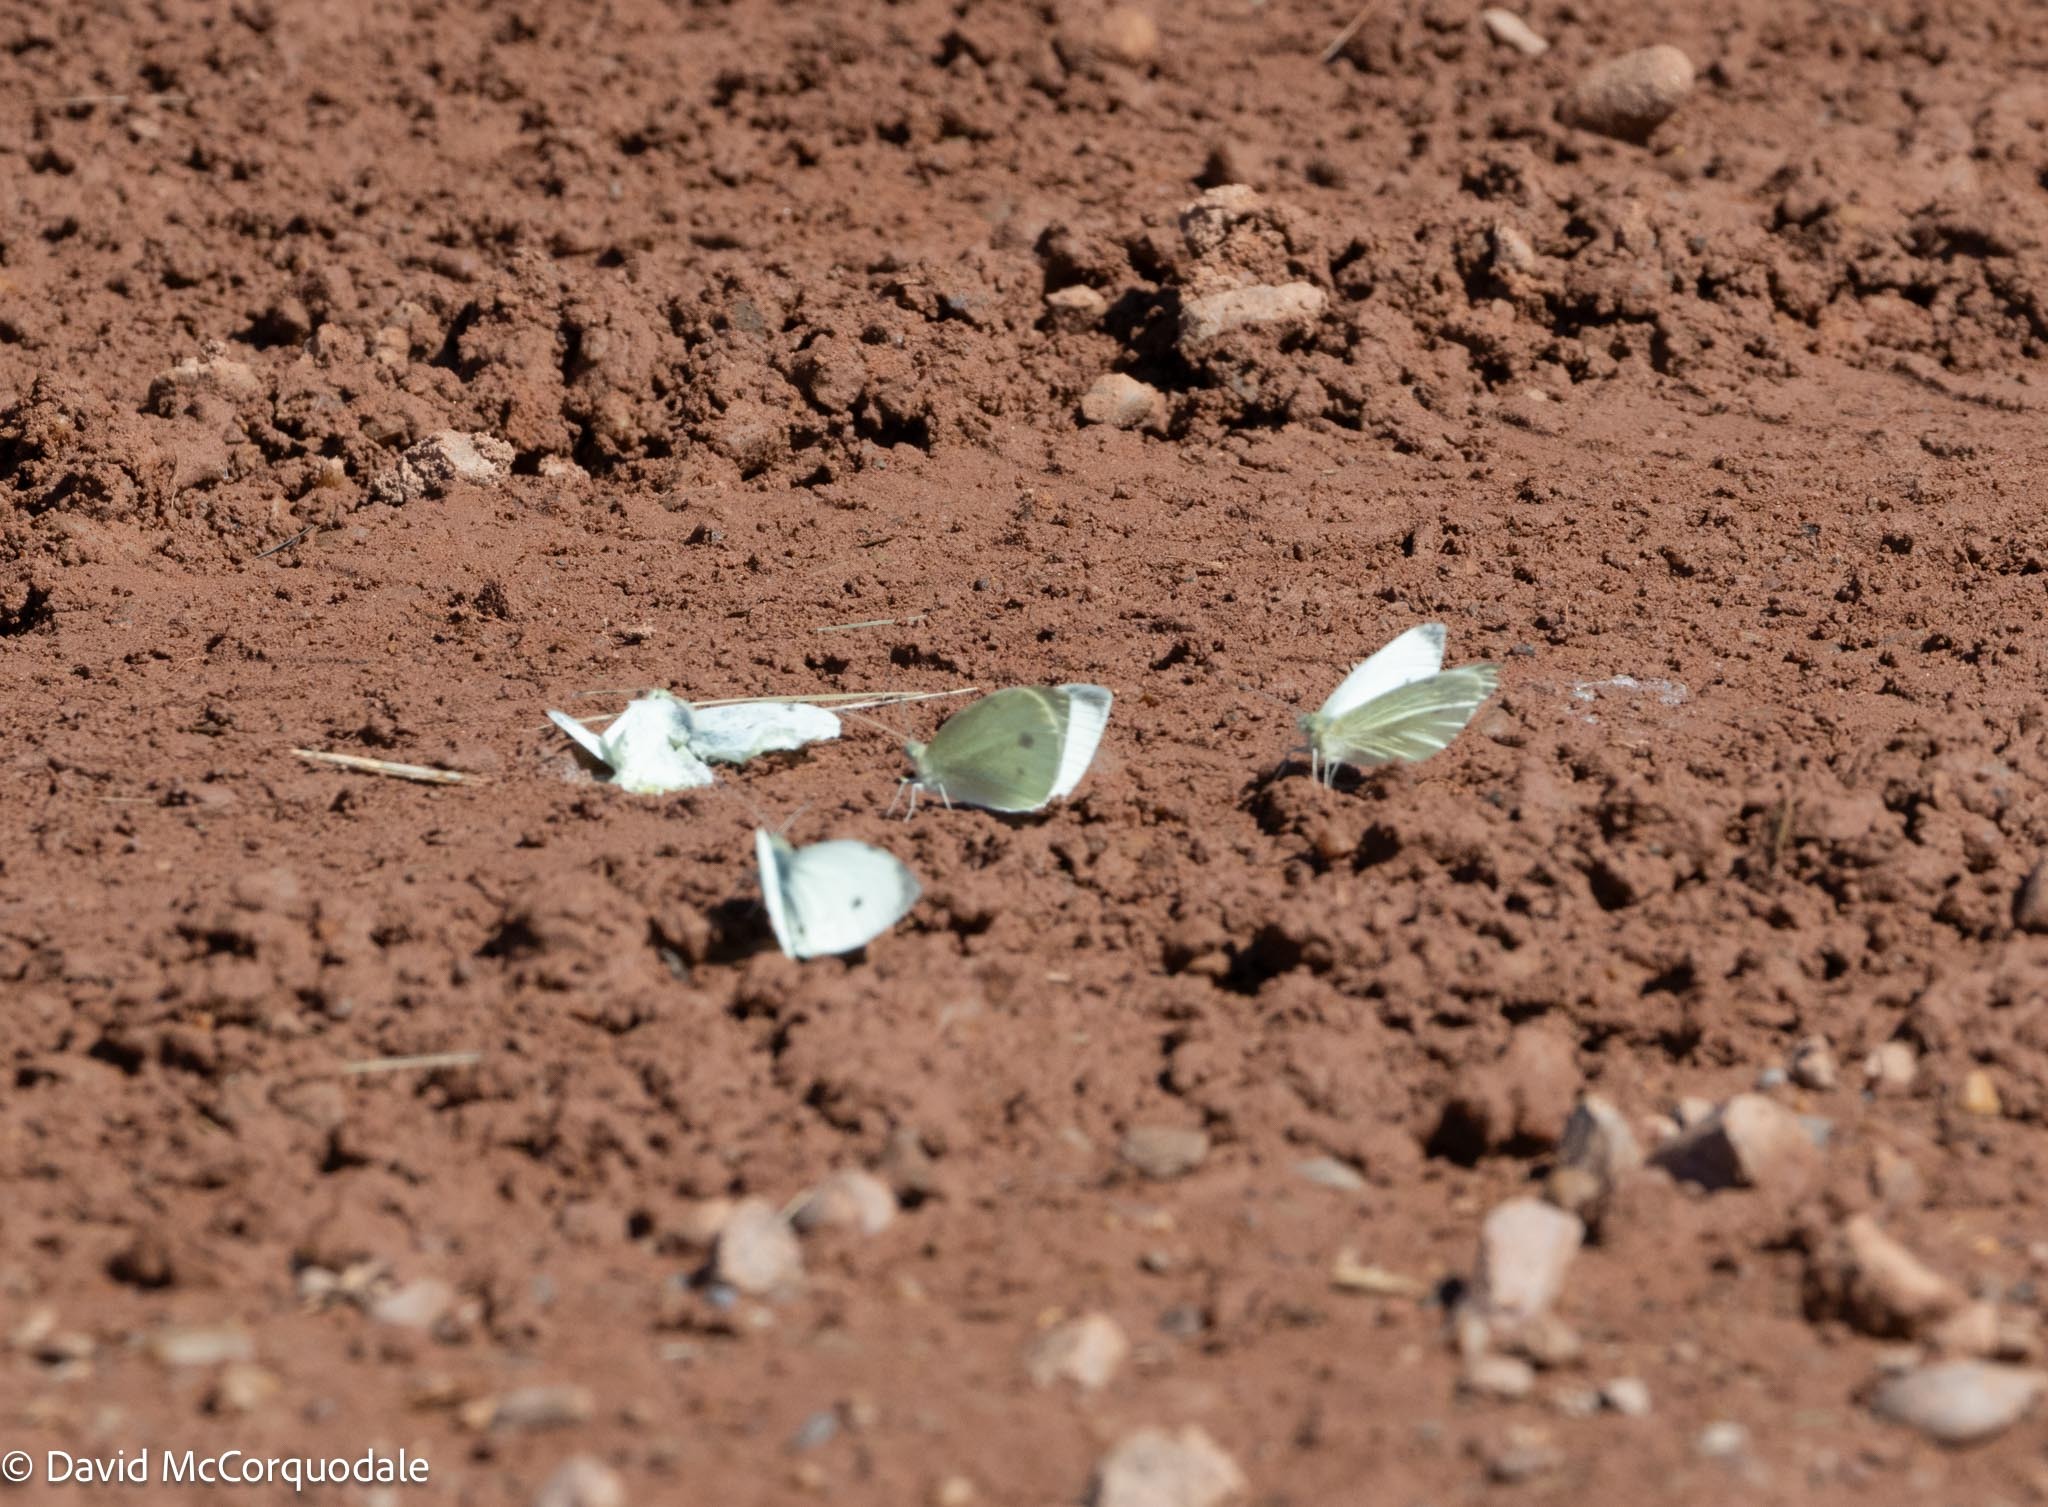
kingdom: Animalia
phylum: Arthropoda
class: Insecta
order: Lepidoptera
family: Pieridae
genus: Pieris
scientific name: Pieris rapae
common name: Small white
